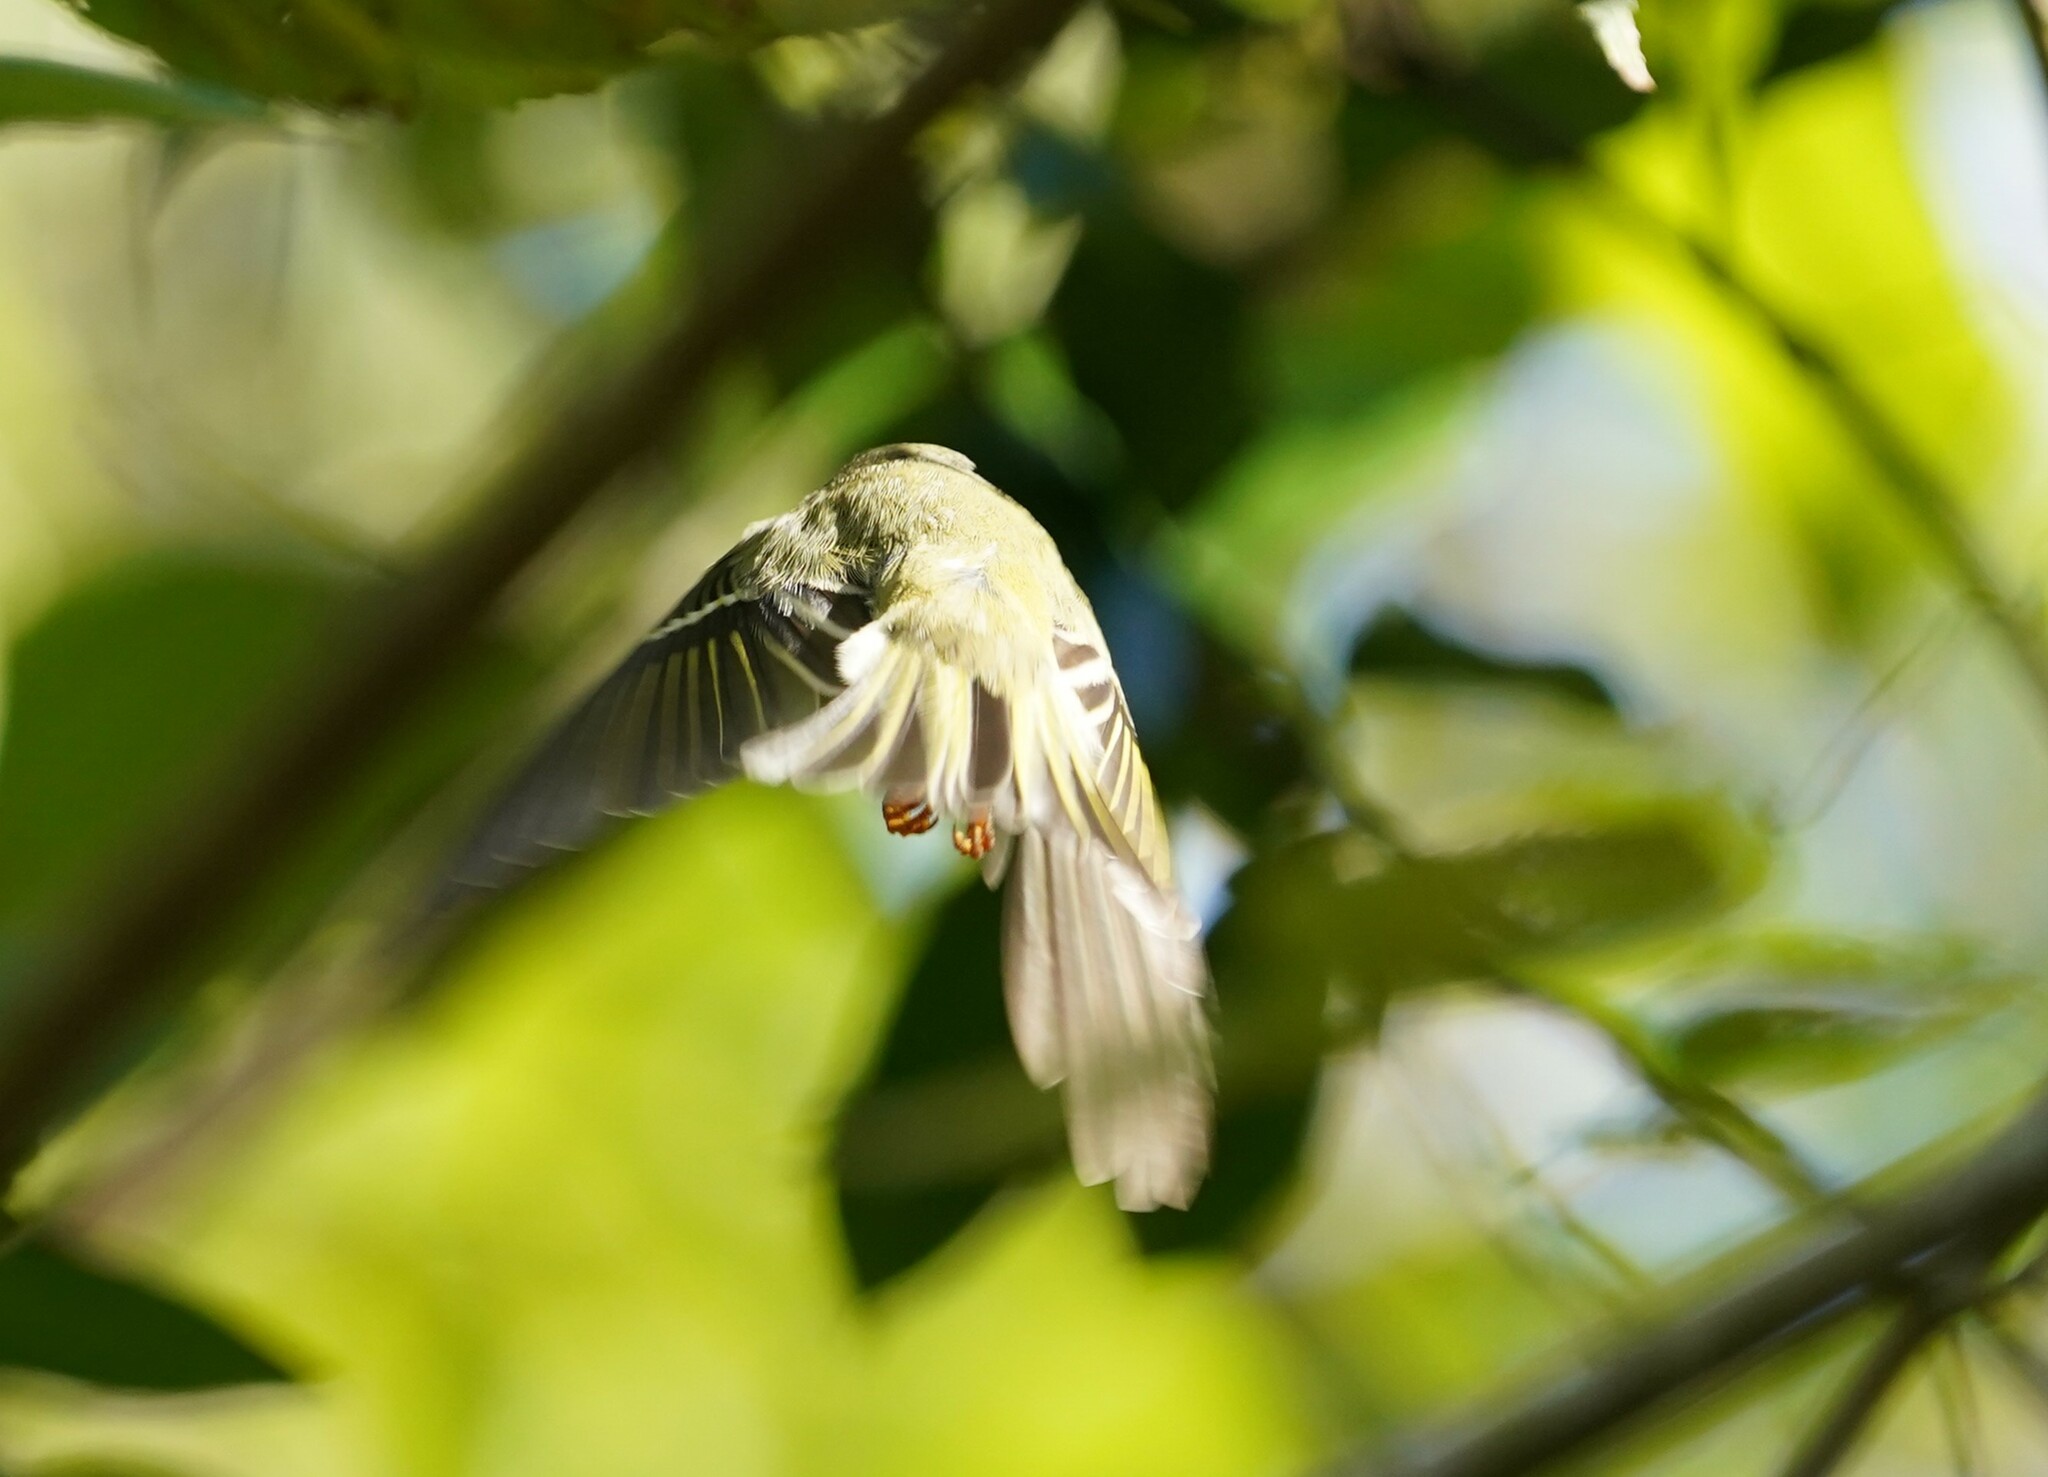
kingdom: Animalia
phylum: Chordata
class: Aves
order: Passeriformes
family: Regulidae
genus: Regulus
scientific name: Regulus calendula
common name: Ruby-crowned kinglet
